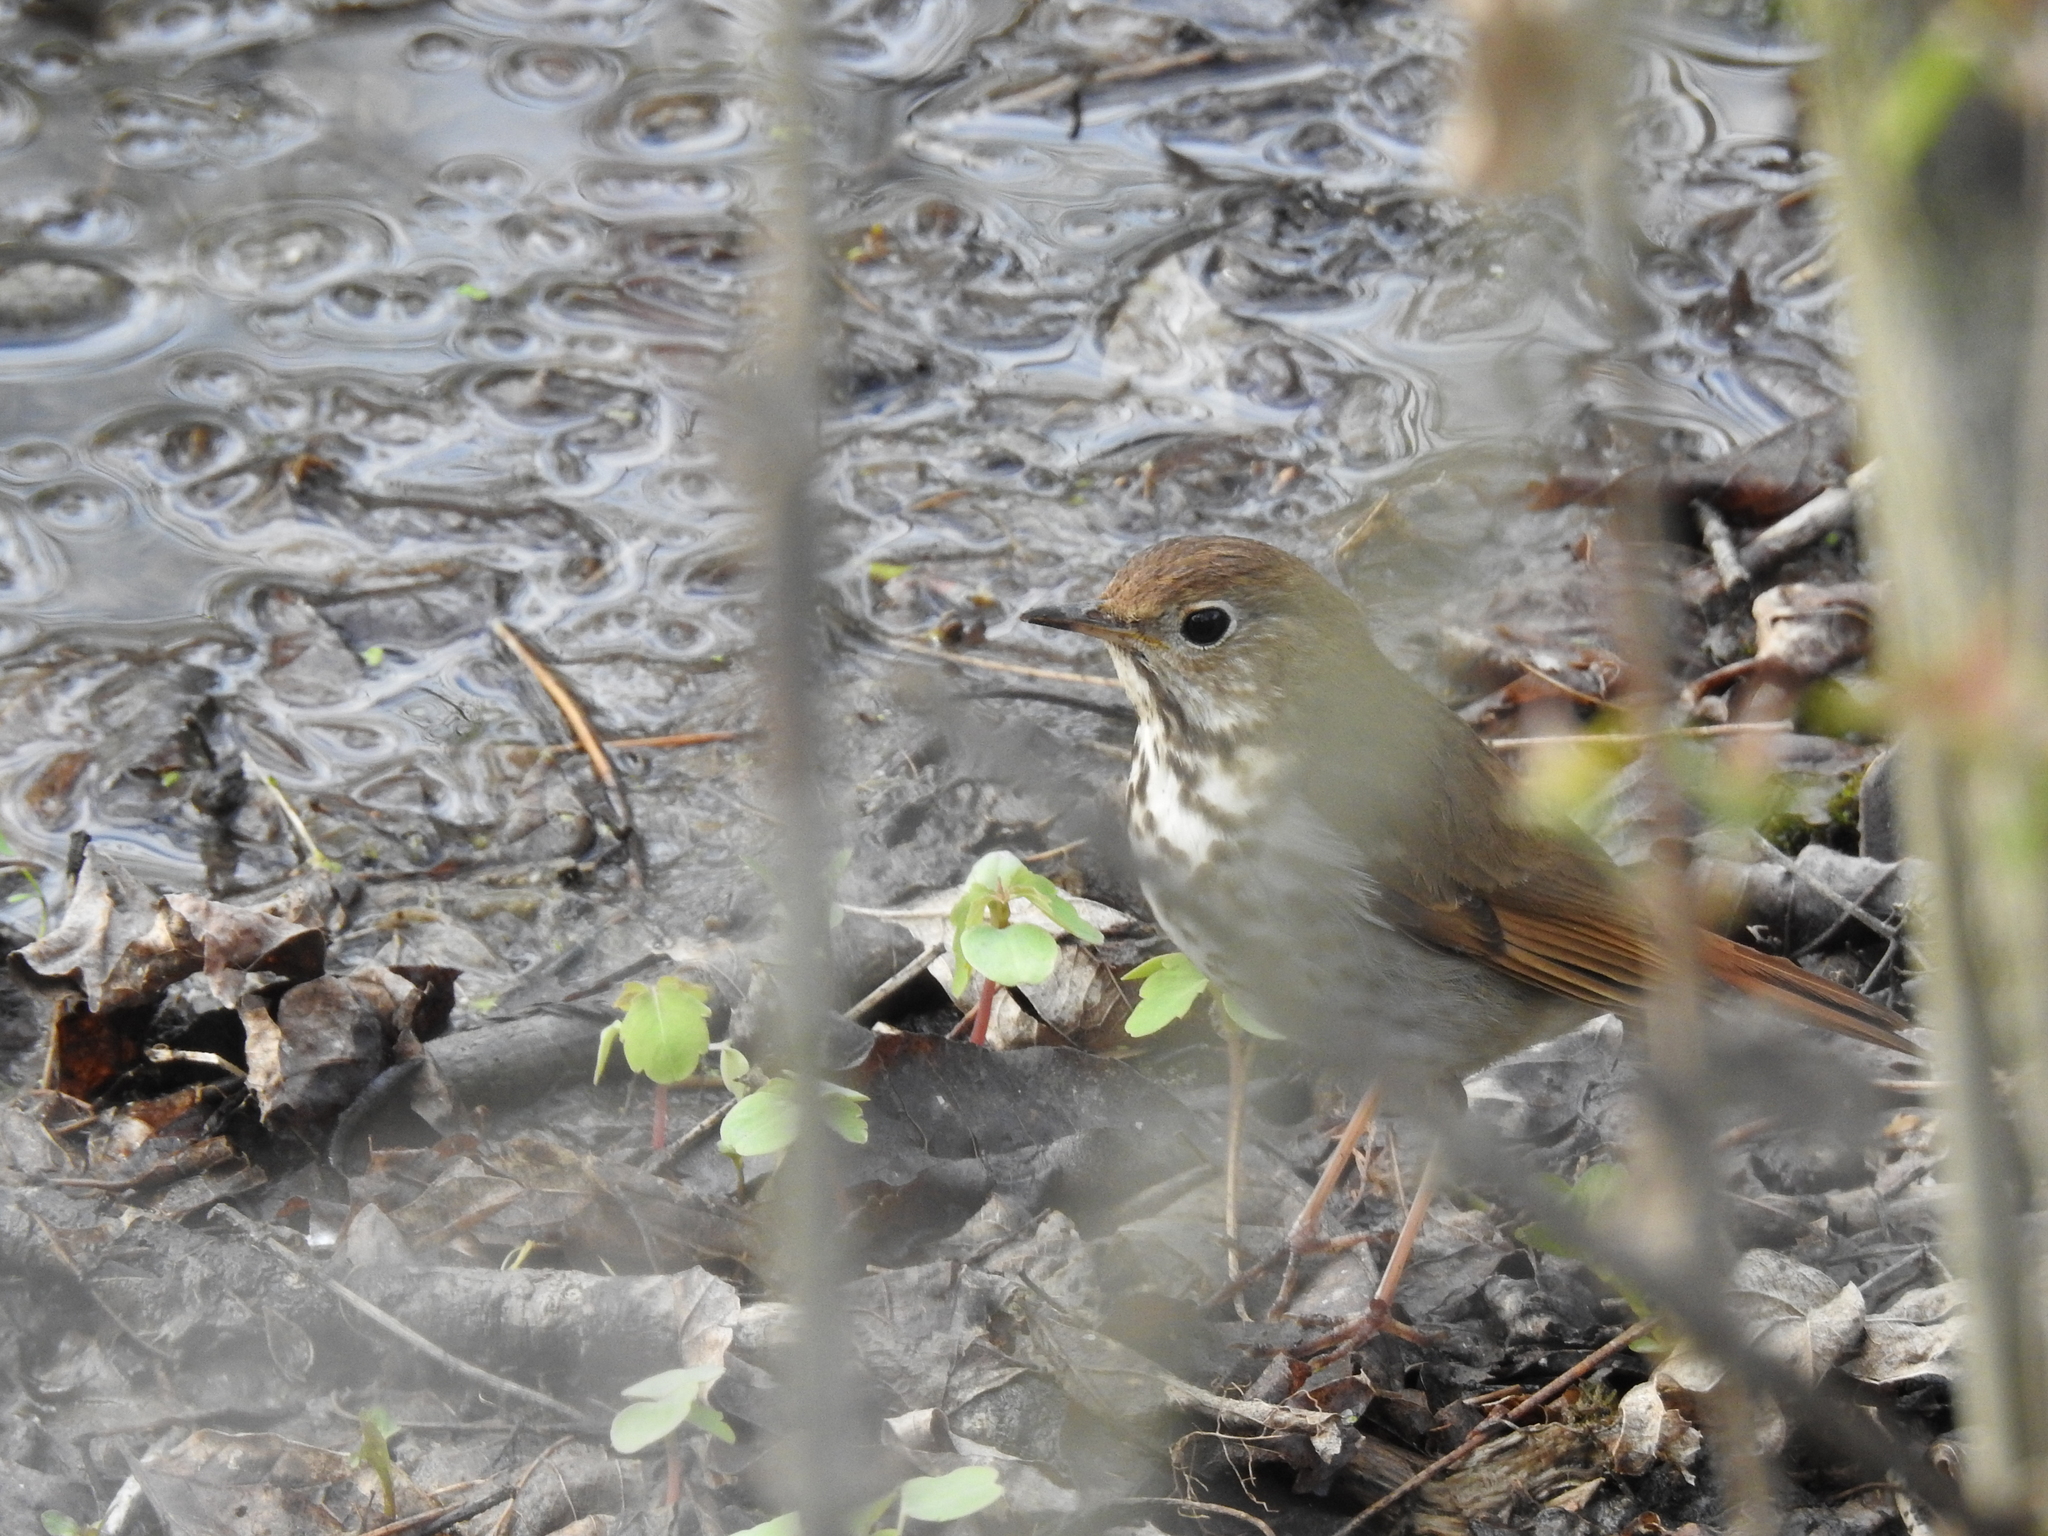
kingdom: Animalia
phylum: Chordata
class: Aves
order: Passeriformes
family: Turdidae
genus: Catharus
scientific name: Catharus guttatus
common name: Hermit thrush
